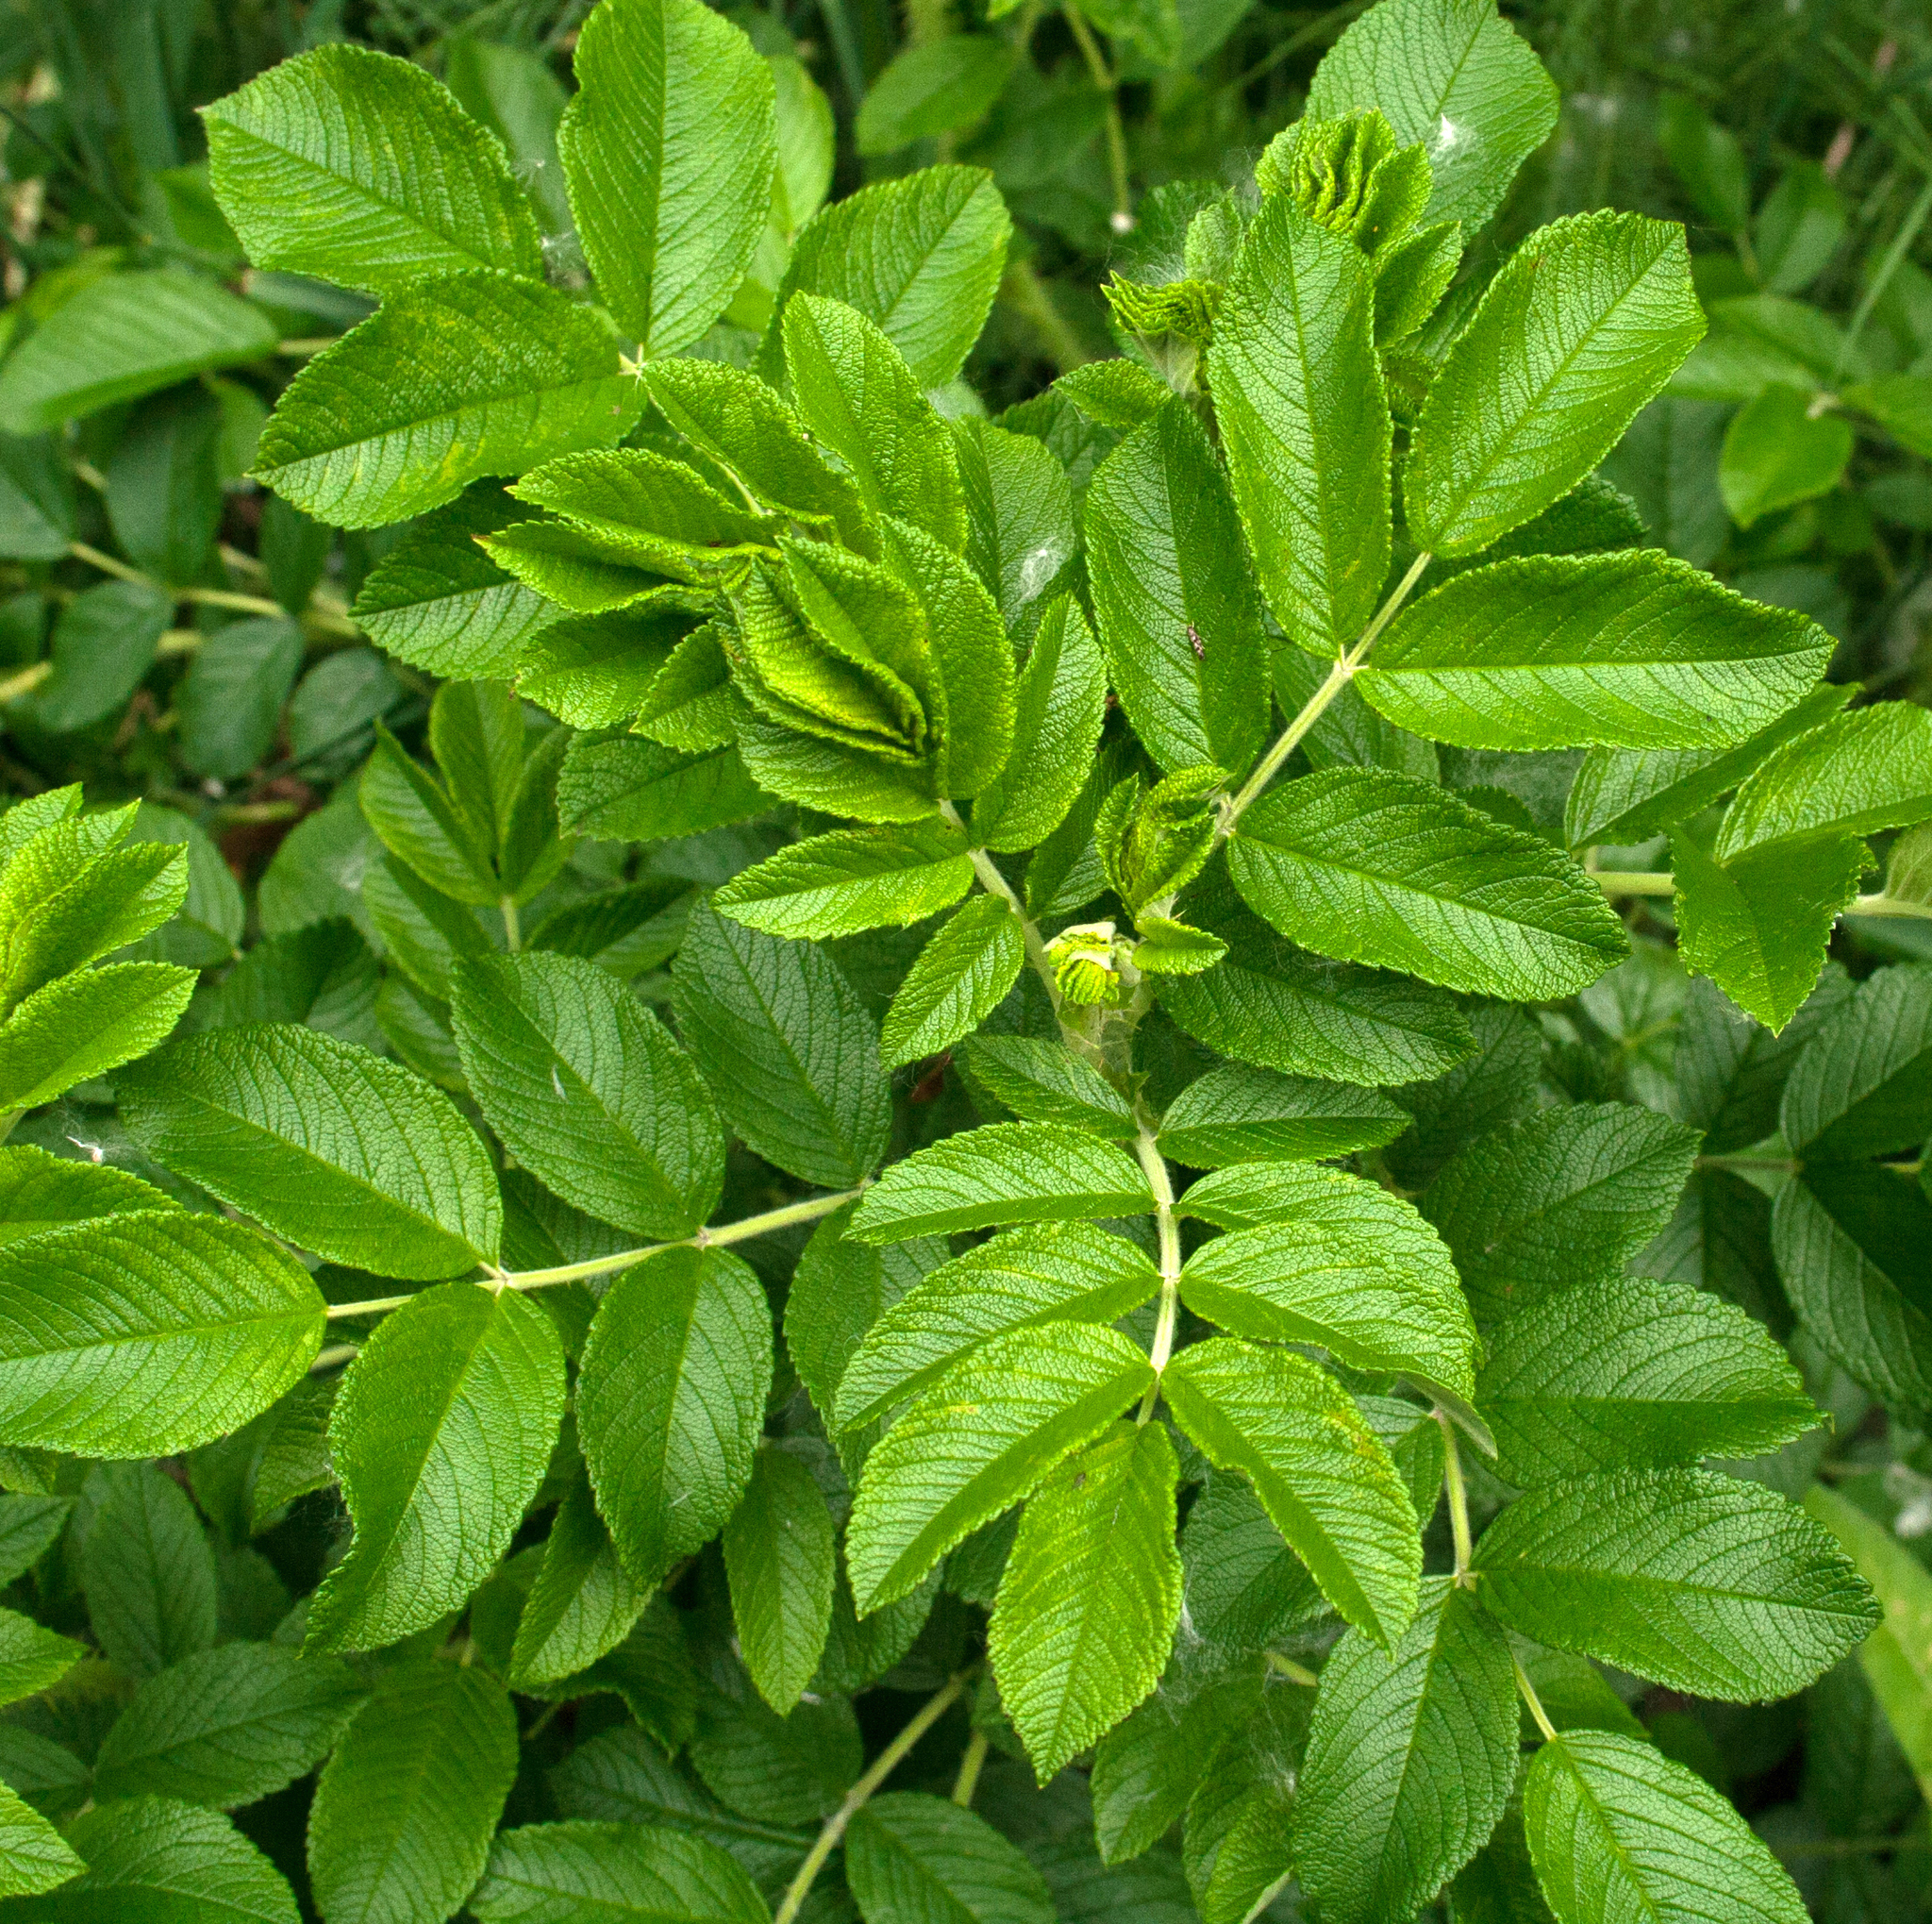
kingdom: Plantae
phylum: Tracheophyta
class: Magnoliopsida
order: Rosales
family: Rosaceae
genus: Rosa
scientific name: Rosa rugosa
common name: Japanese rose
